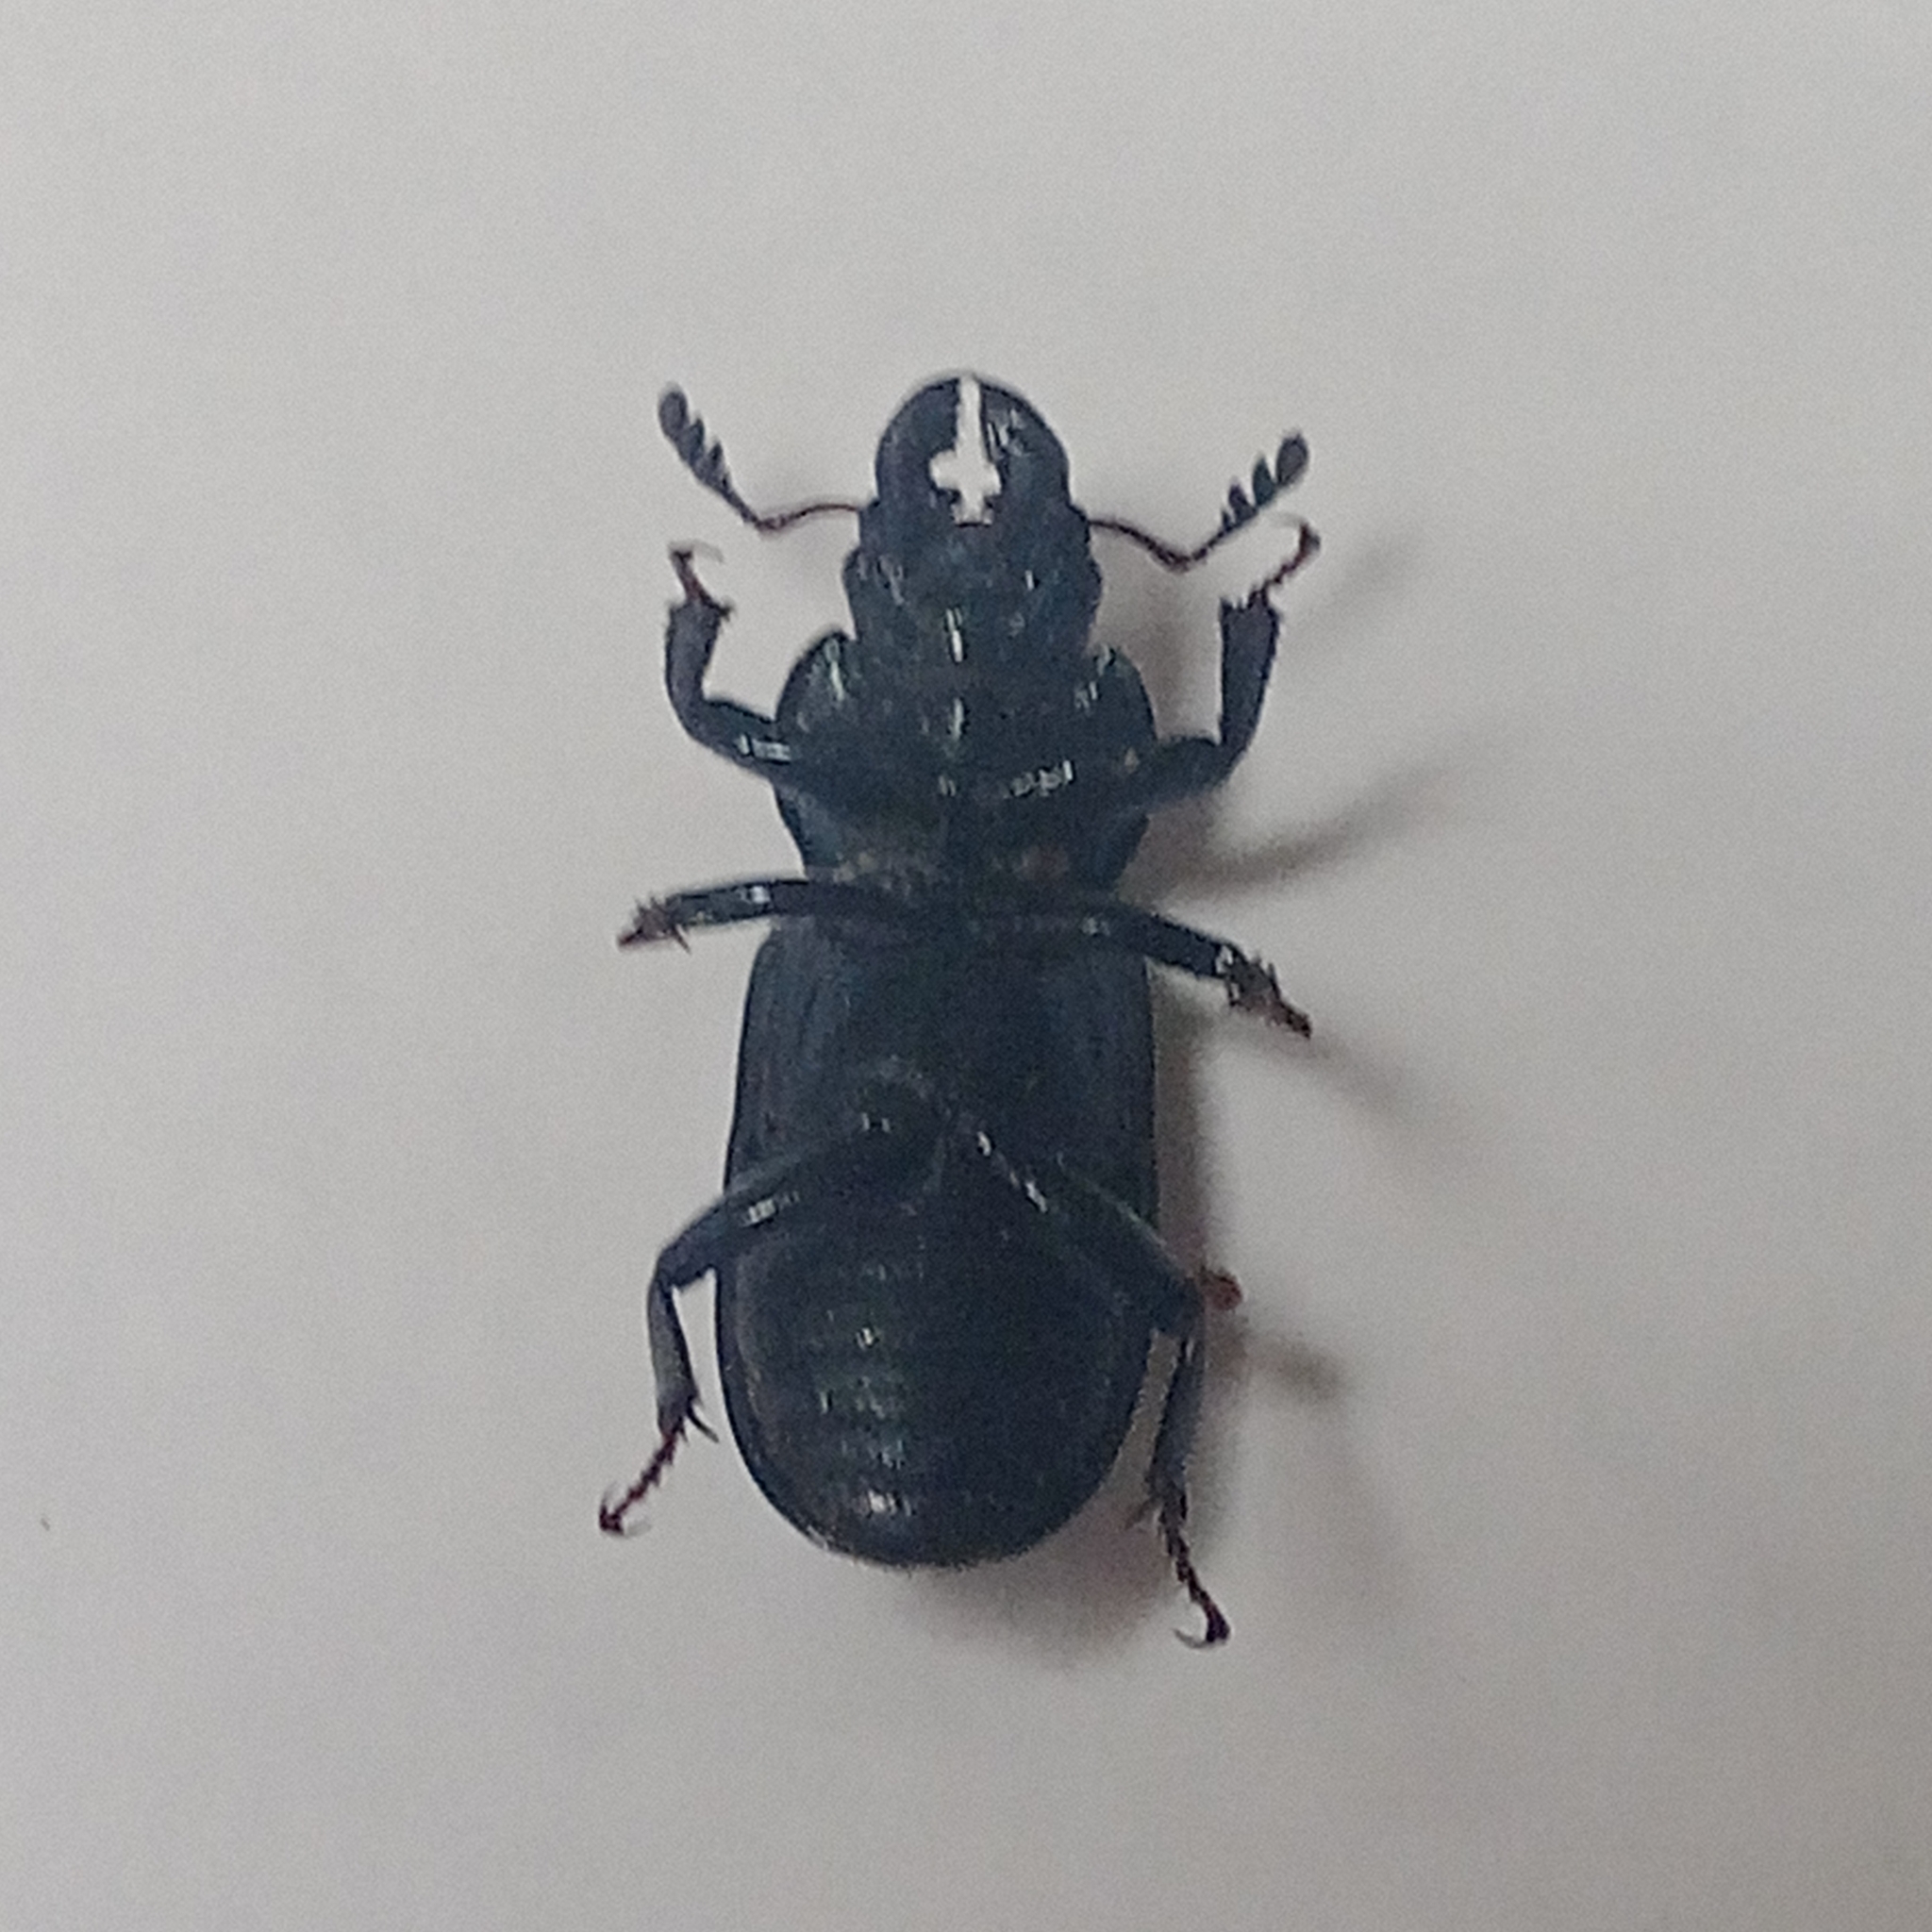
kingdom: Animalia
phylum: Arthropoda
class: Insecta
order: Coleoptera
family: Lucanidae
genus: Platycerus
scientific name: Platycerus caprea
